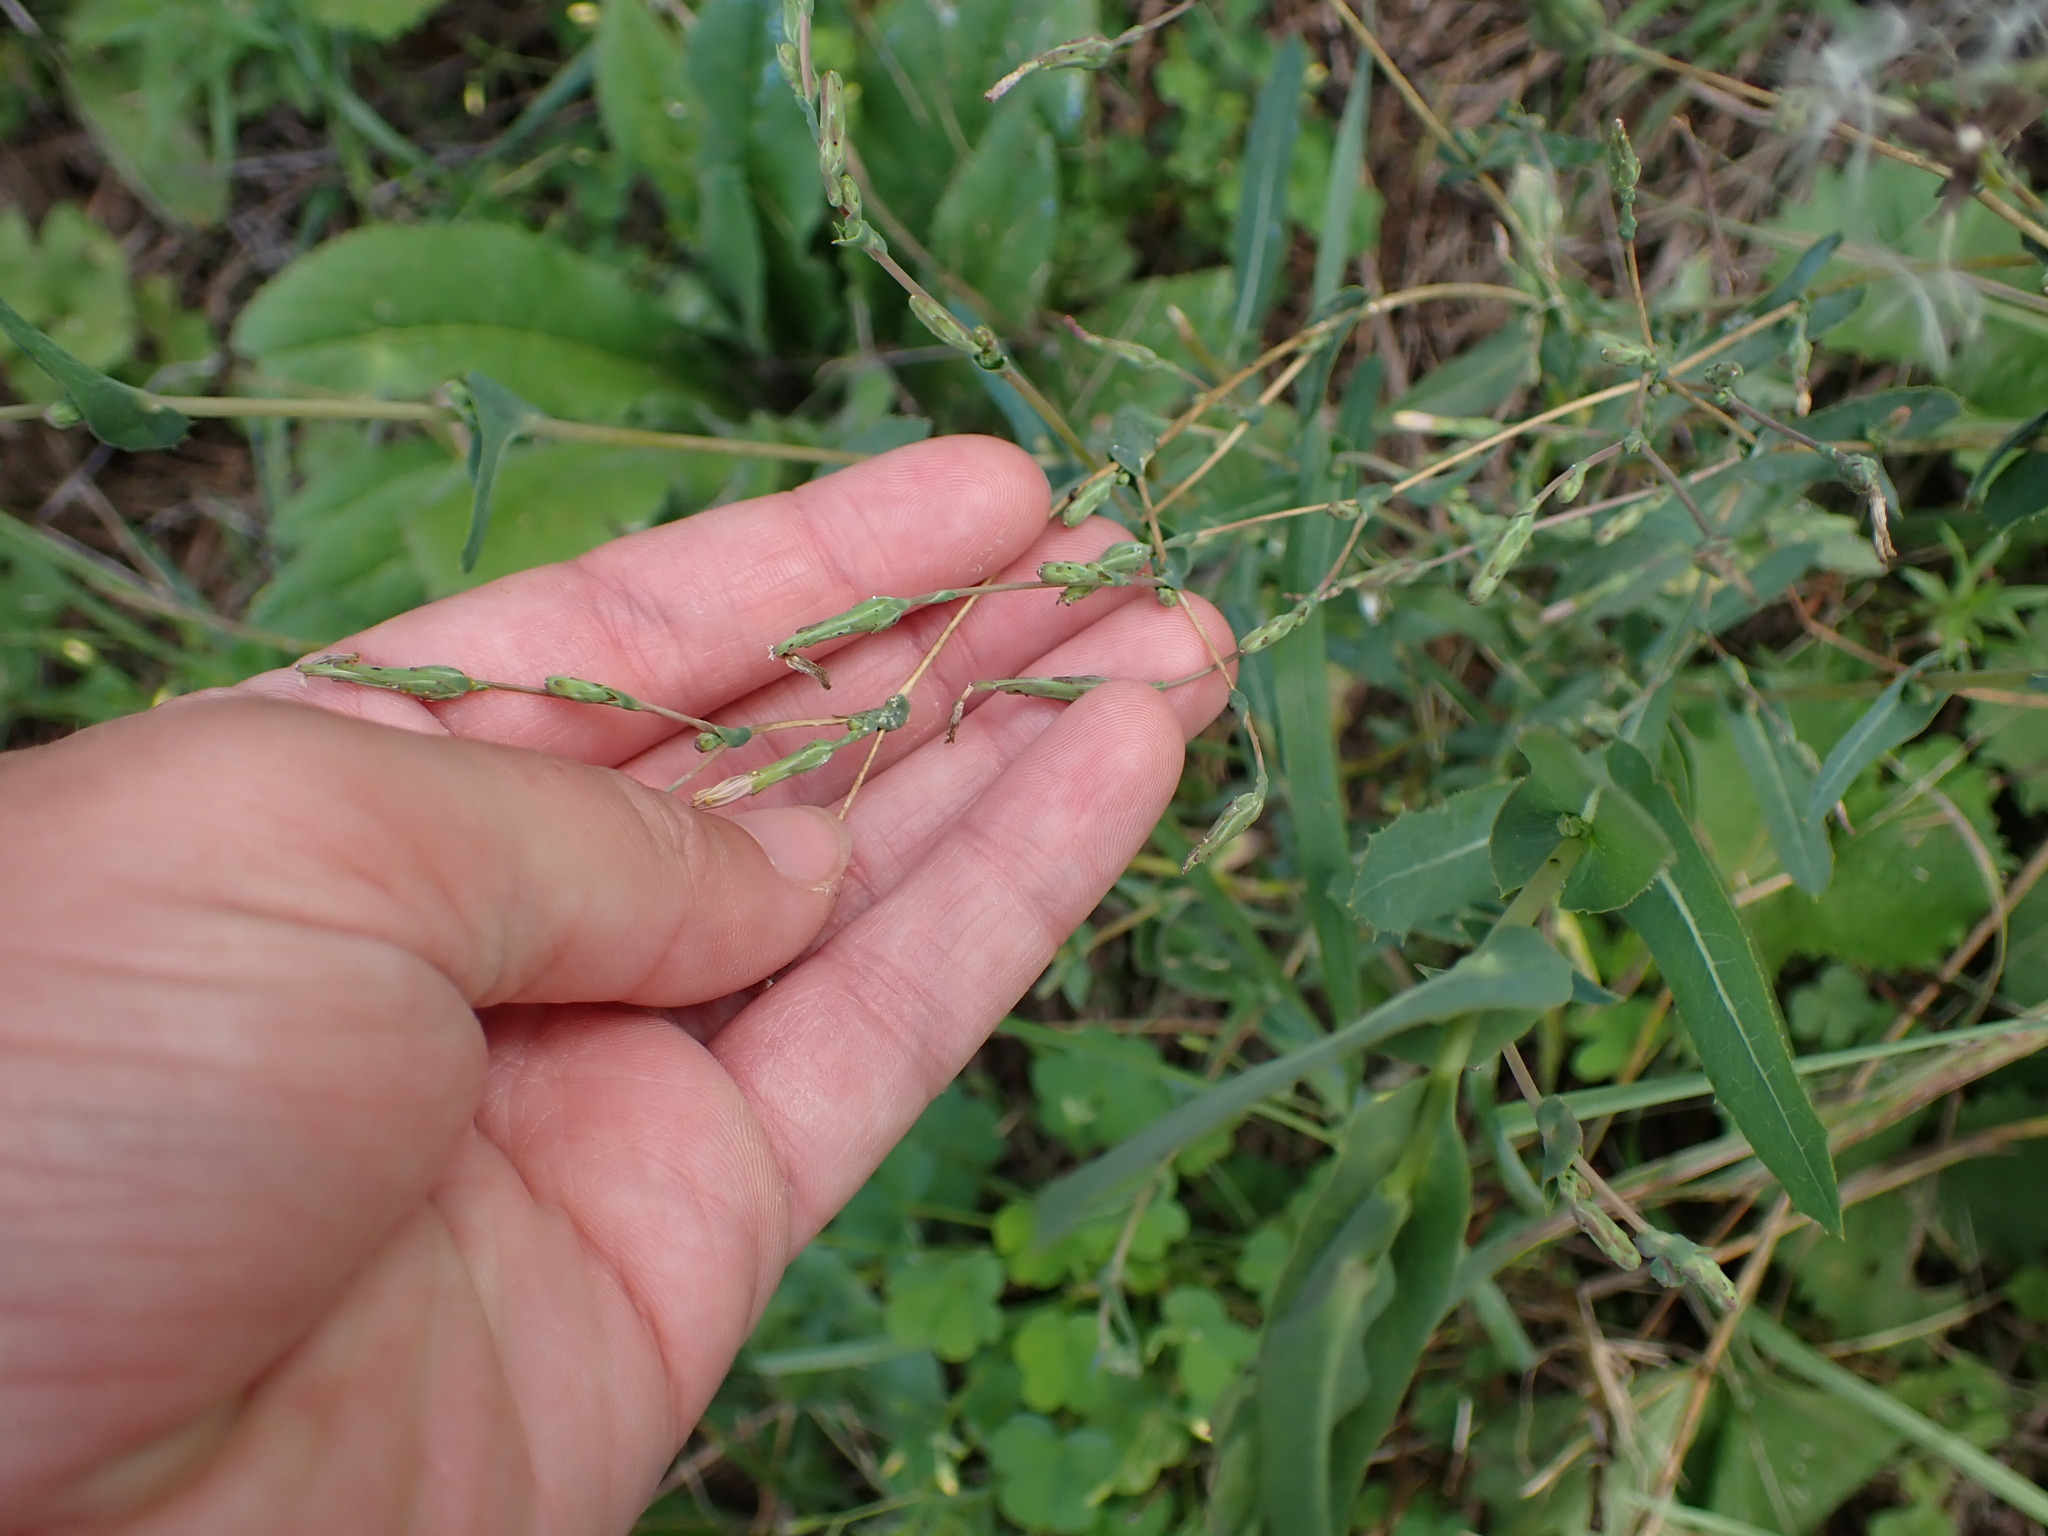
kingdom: Plantae
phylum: Tracheophyta
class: Magnoliopsida
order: Asterales
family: Asteraceae
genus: Lactuca
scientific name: Lactuca serriola
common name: Prickly lettuce
